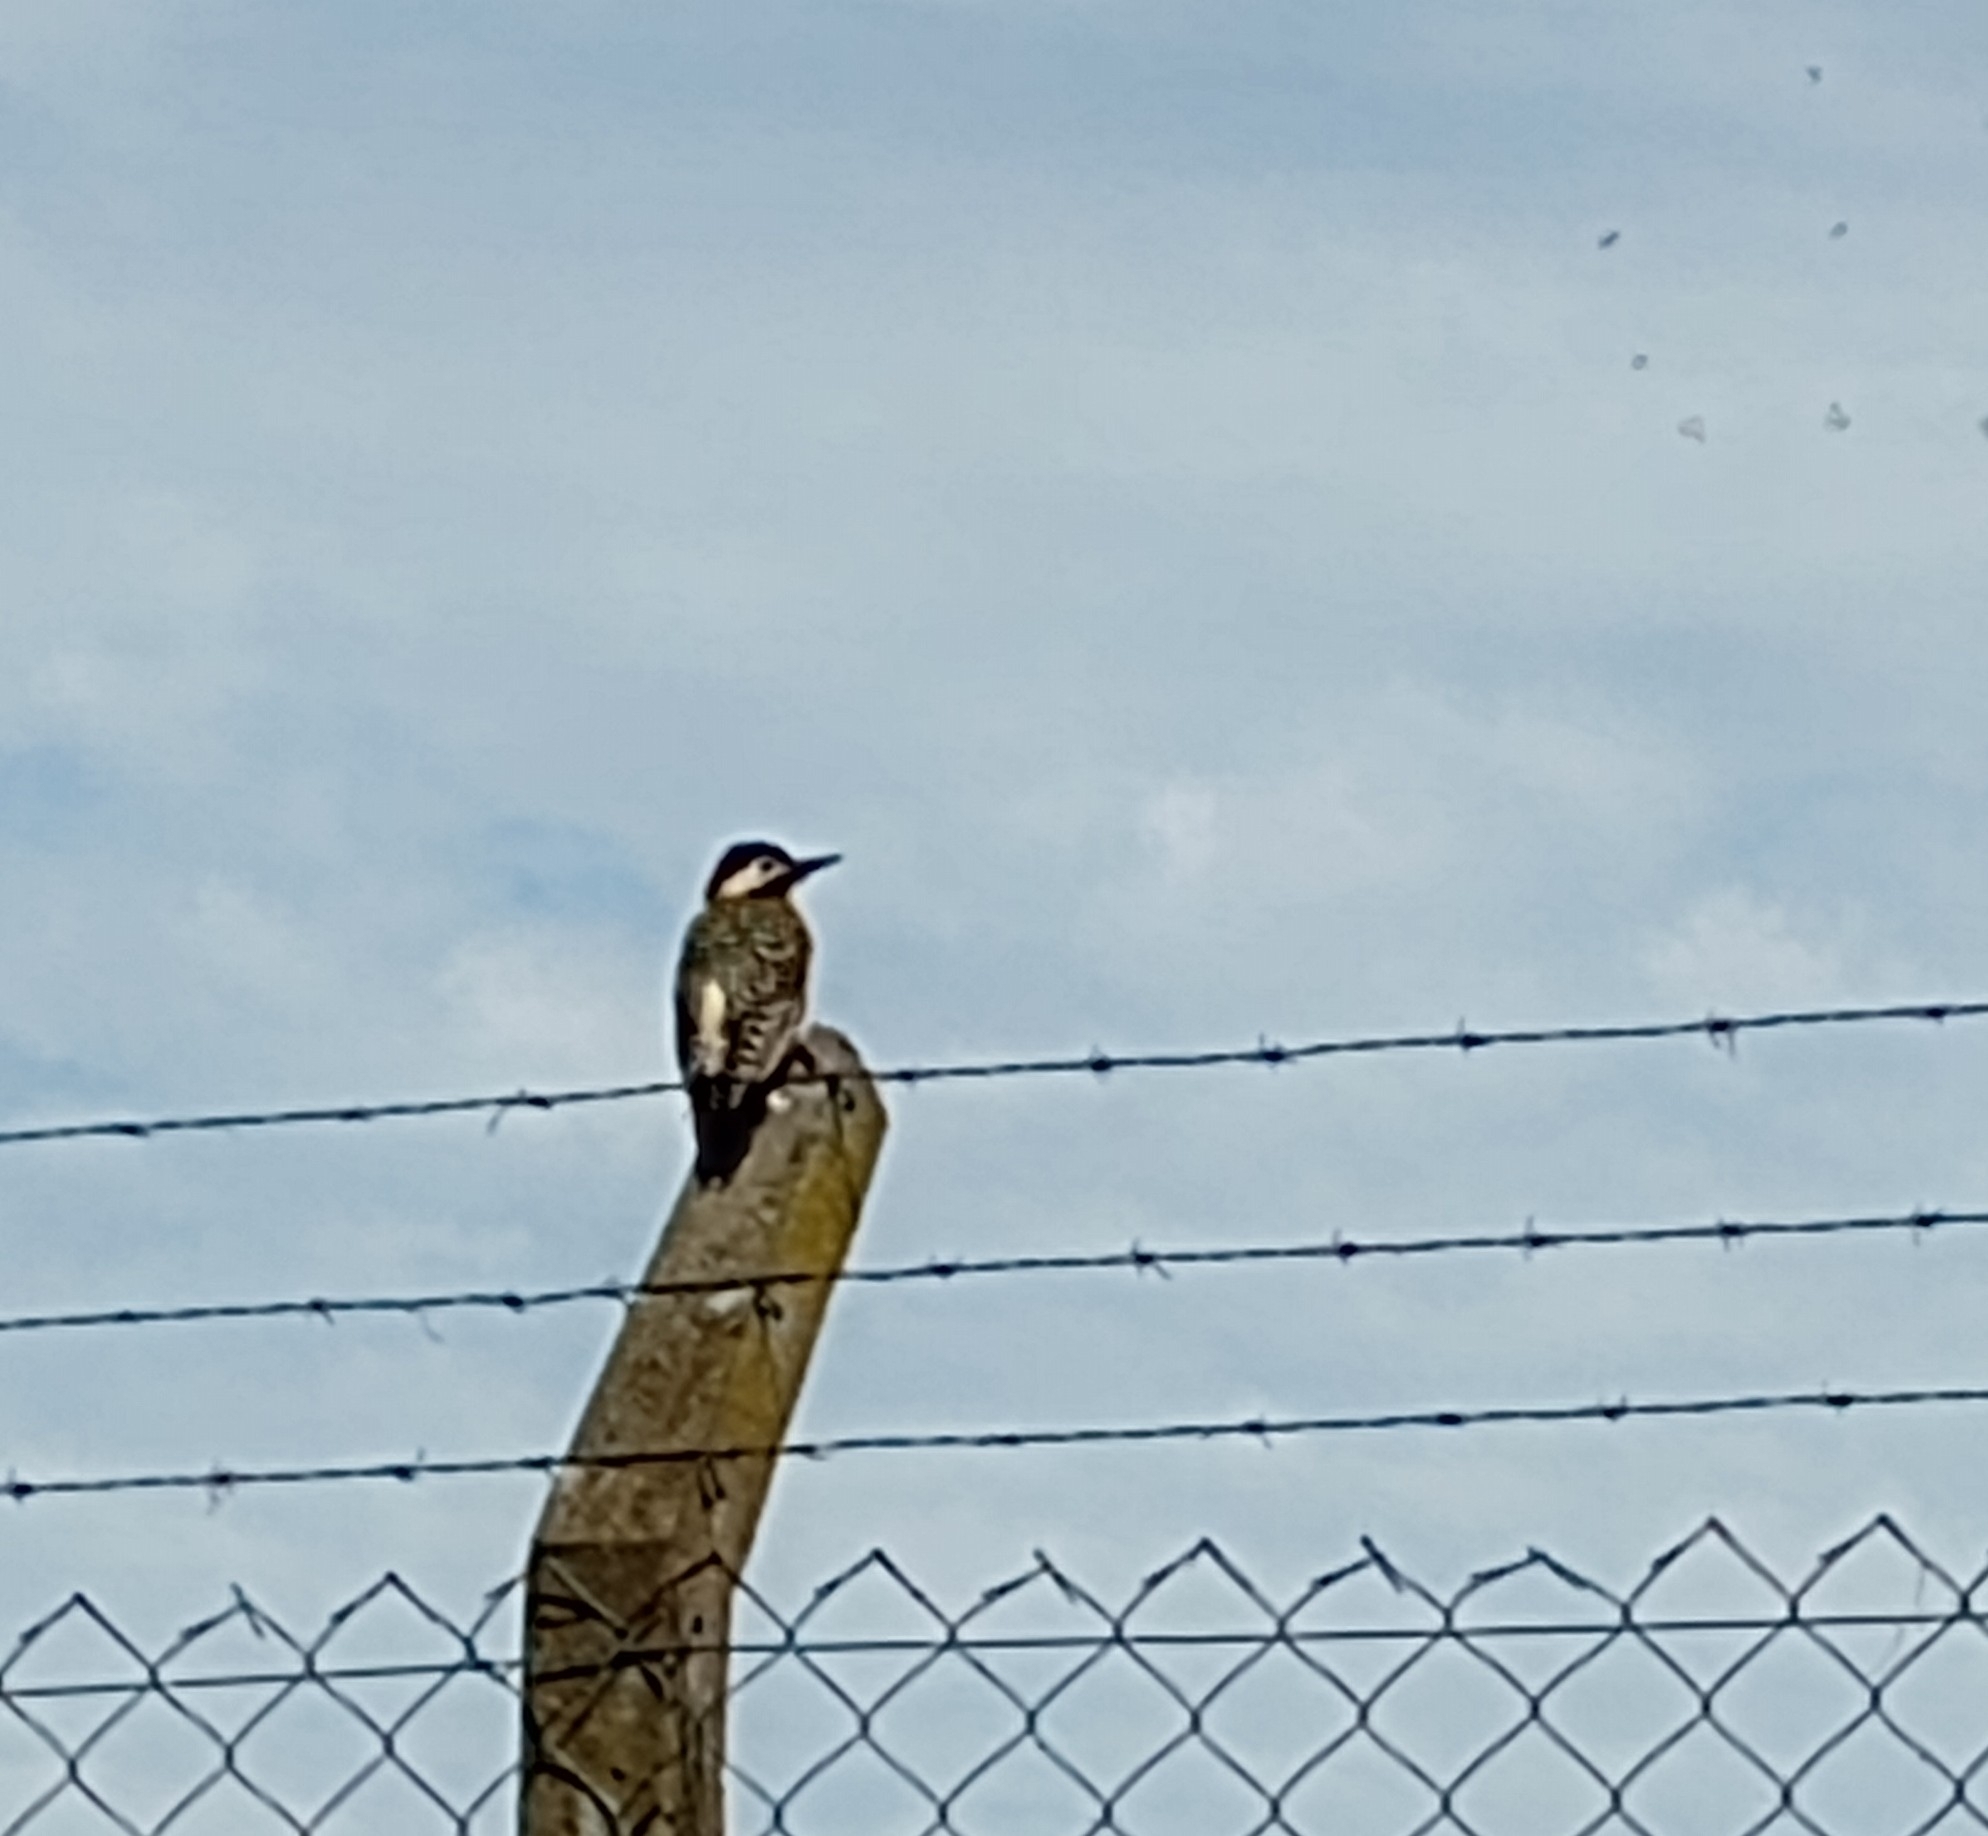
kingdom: Animalia
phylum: Chordata
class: Aves
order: Piciformes
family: Picidae
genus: Colaptes
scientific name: Colaptes melanochloros
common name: Green-barred woodpecker
